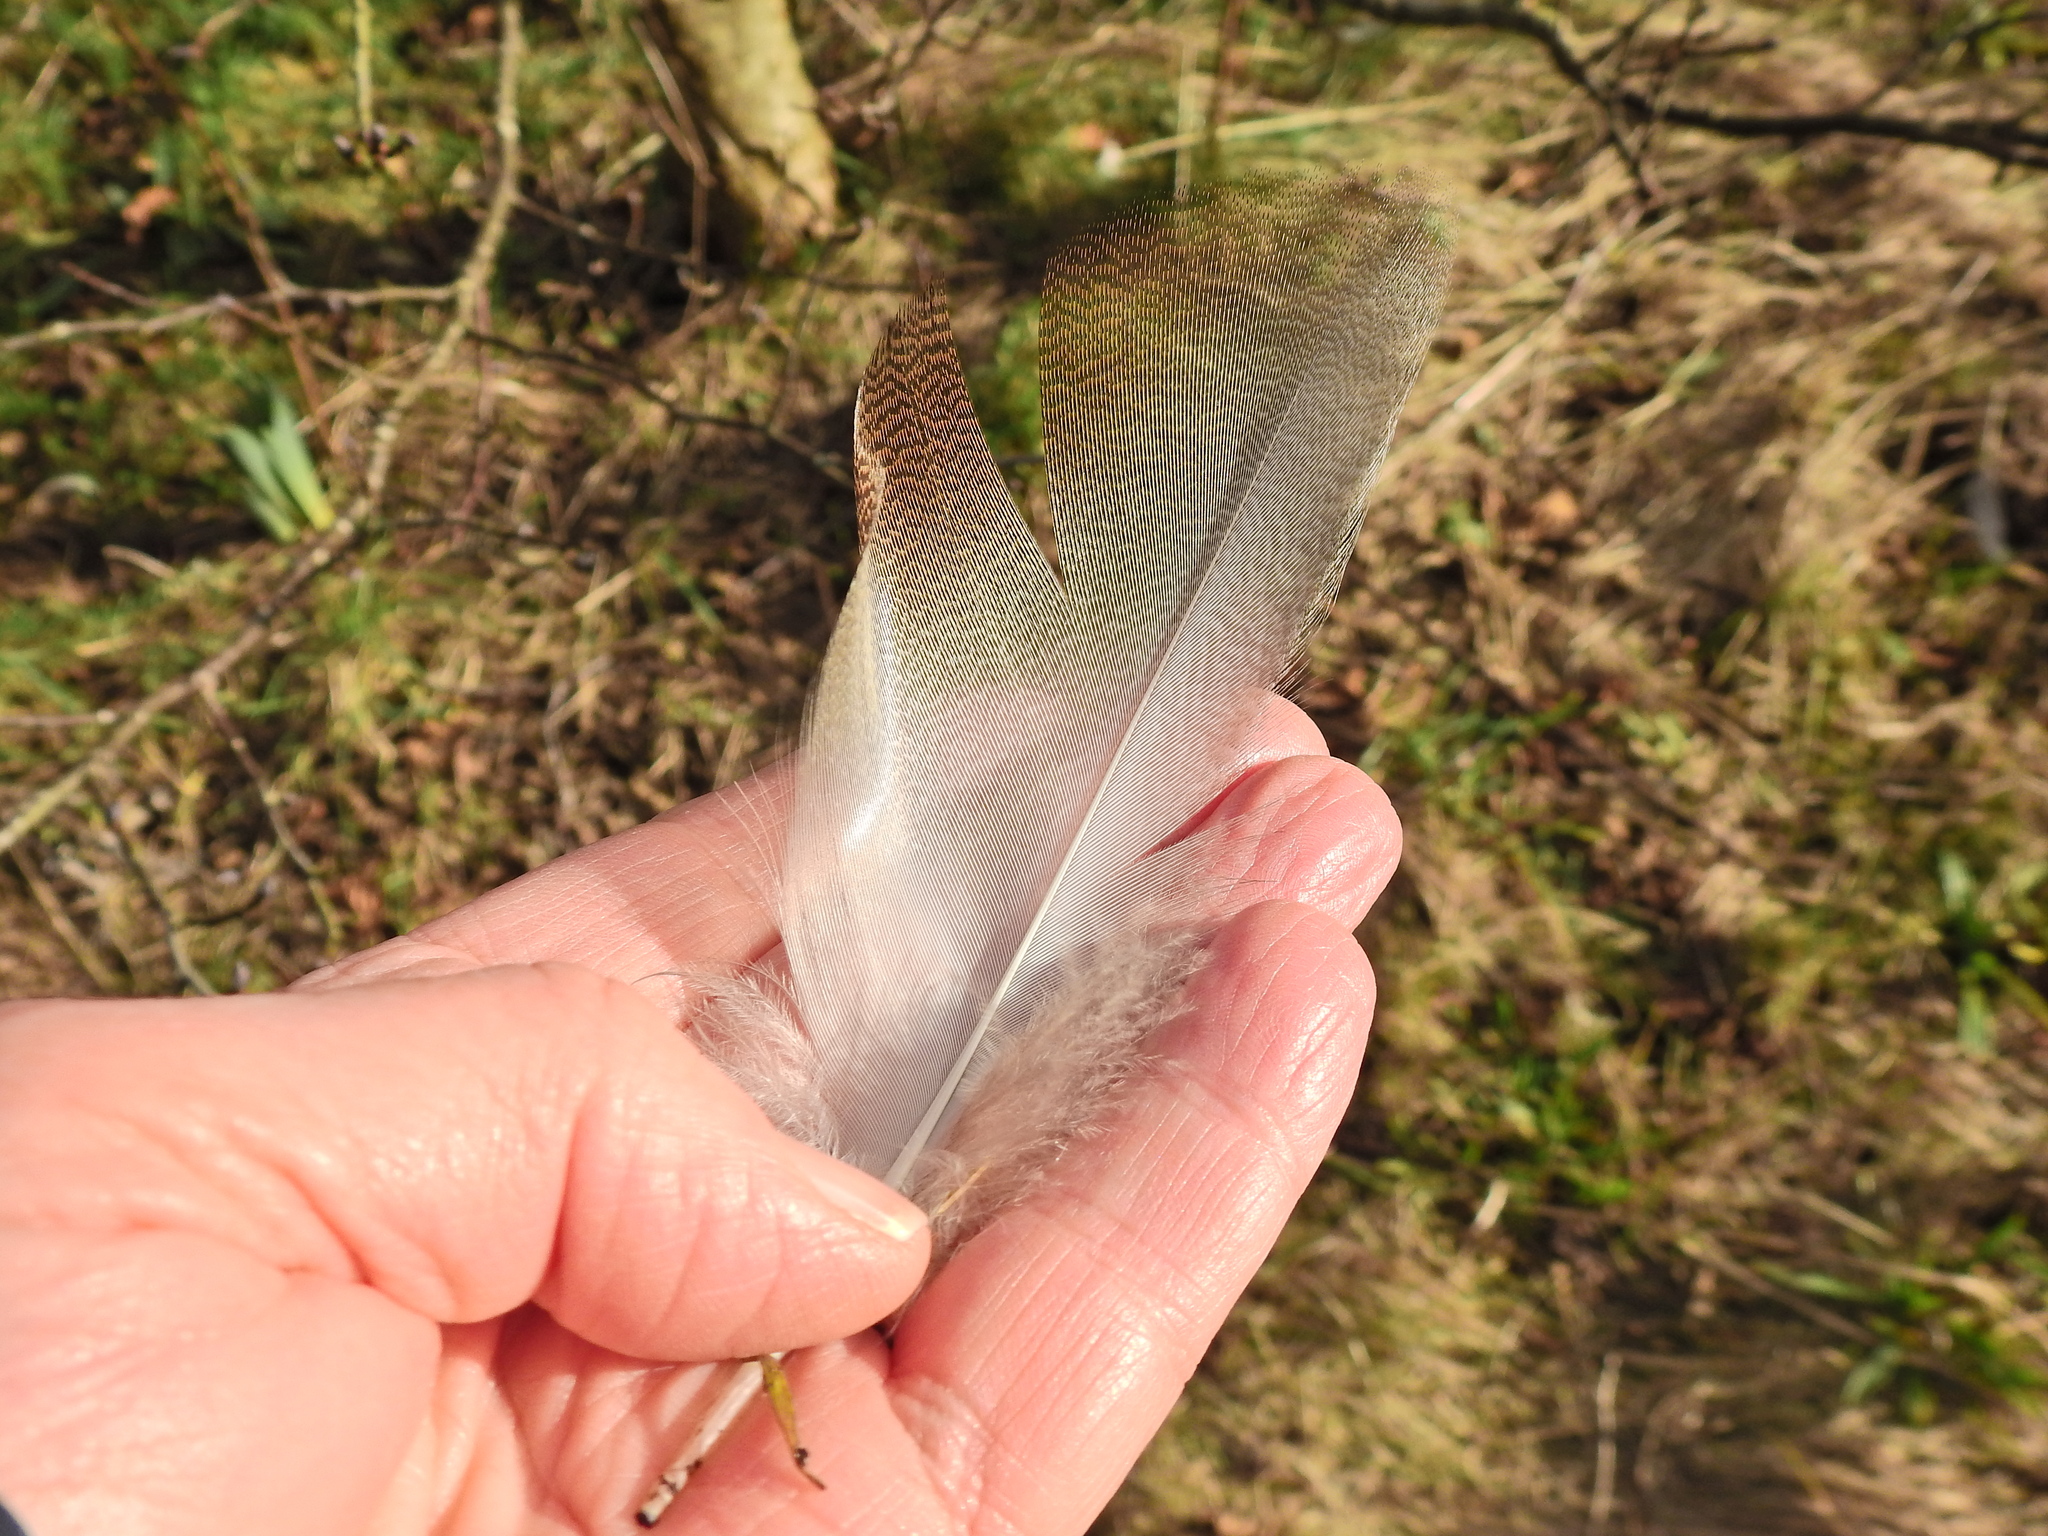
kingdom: Animalia
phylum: Chordata
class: Aves
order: Anseriformes
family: Anatidae
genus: Anas
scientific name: Anas platyrhynchos
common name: Mallard
